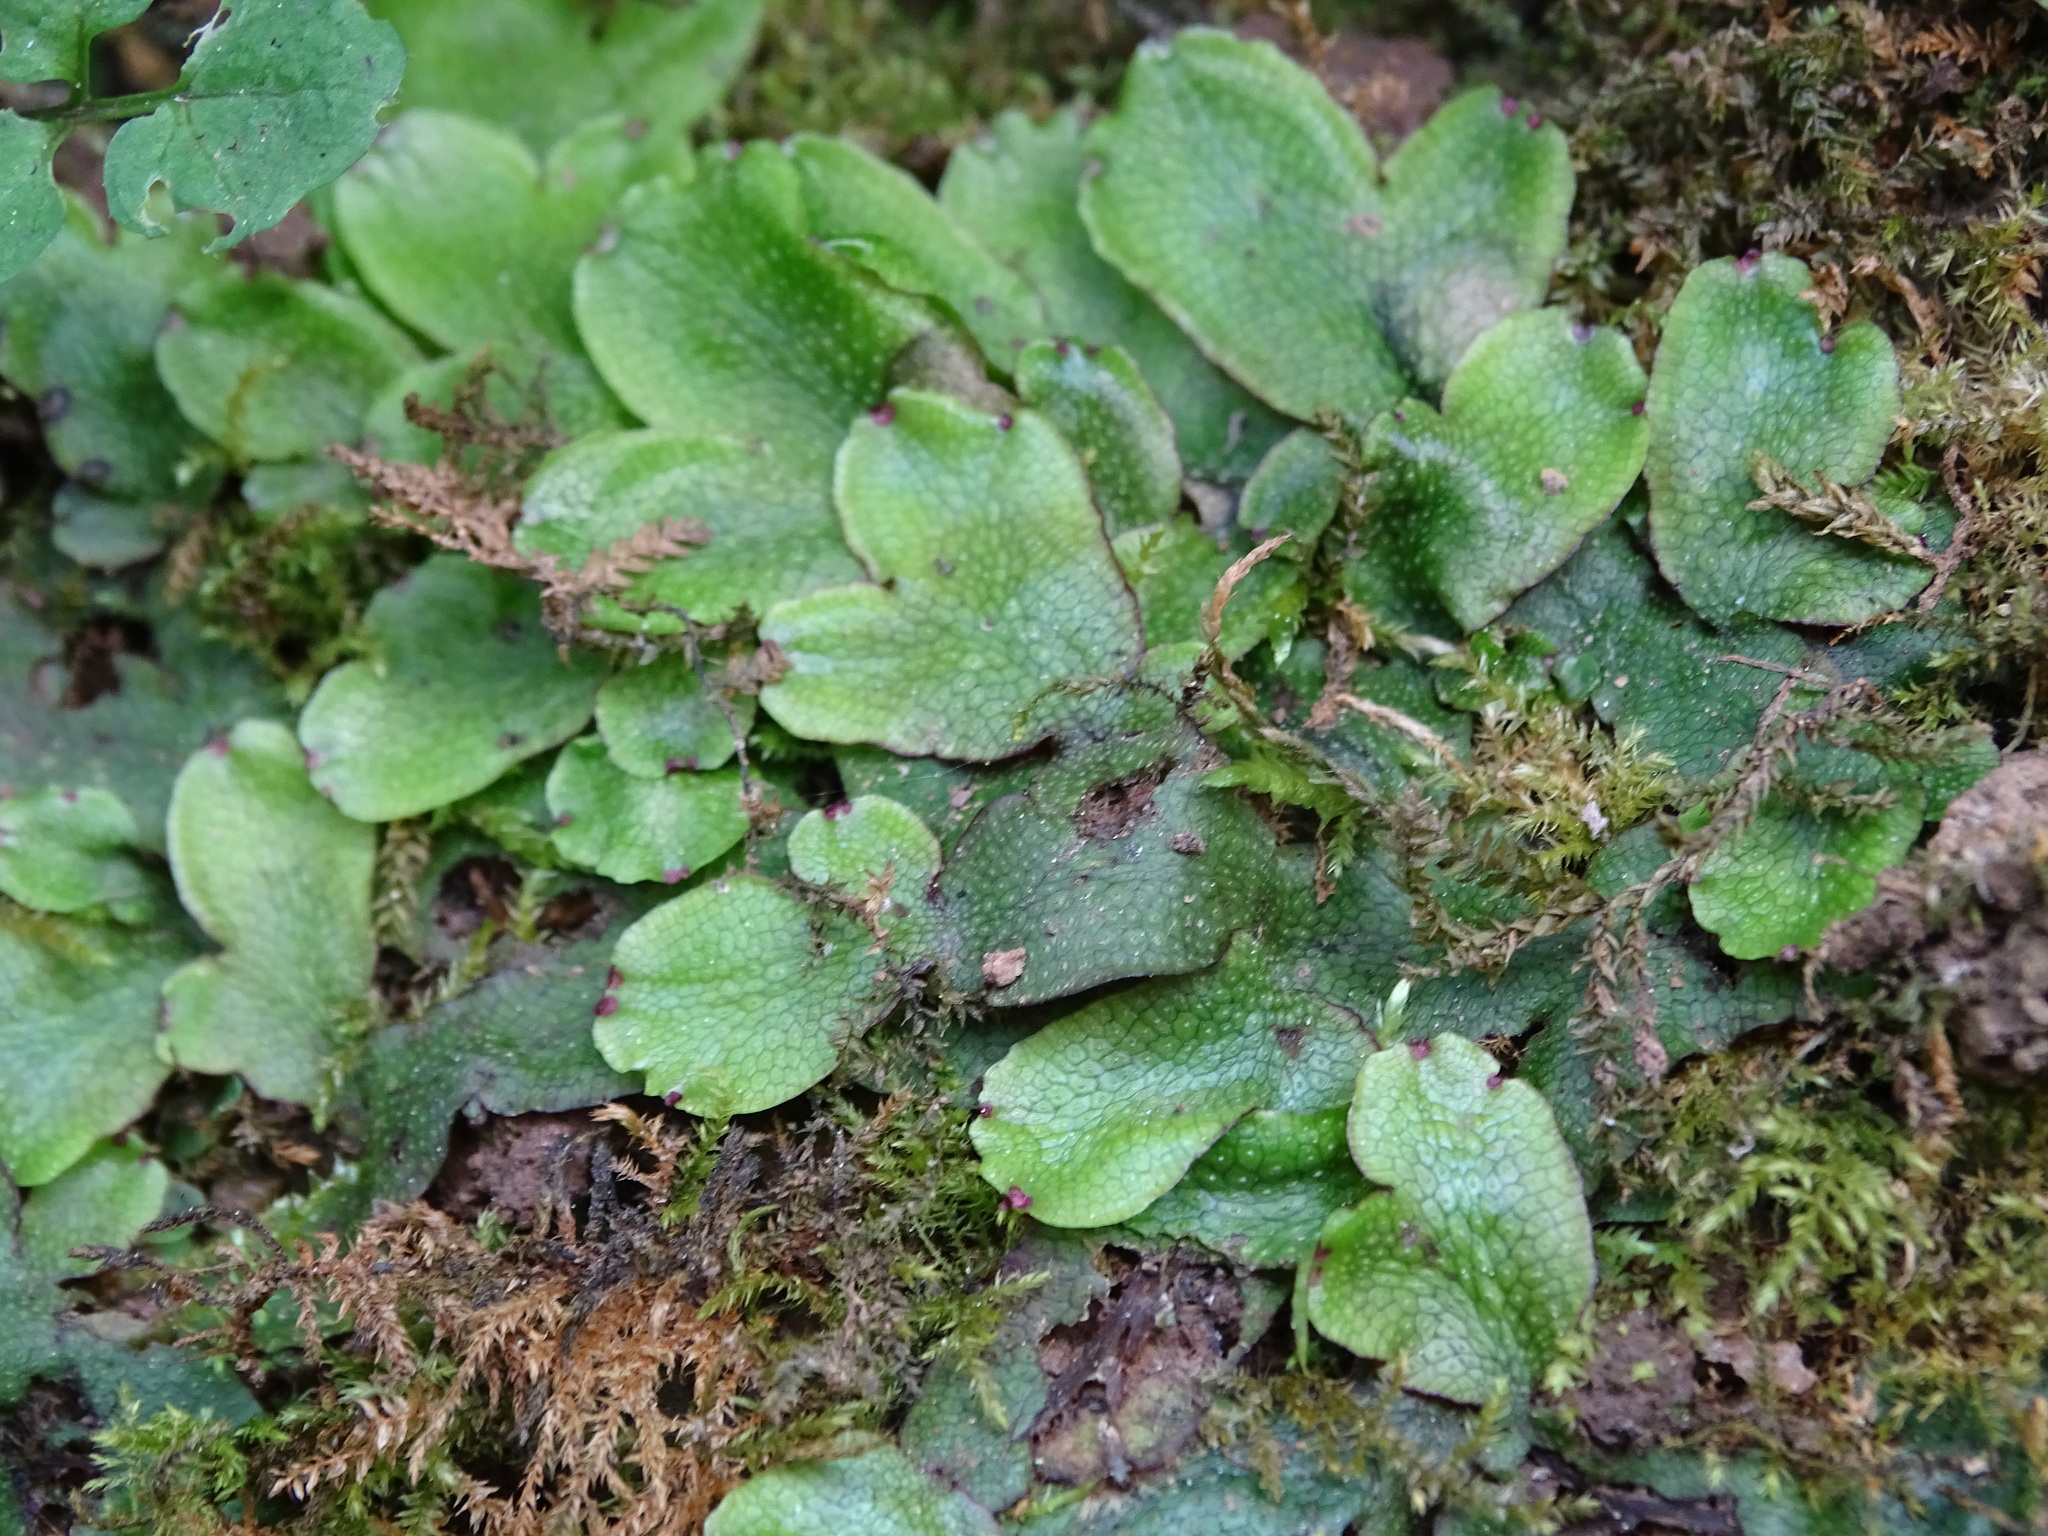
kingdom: Plantae
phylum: Marchantiophyta
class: Marchantiopsida
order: Marchantiales
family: Conocephalaceae
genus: Conocephalum
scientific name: Conocephalum conicum
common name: Great scented liverwort
